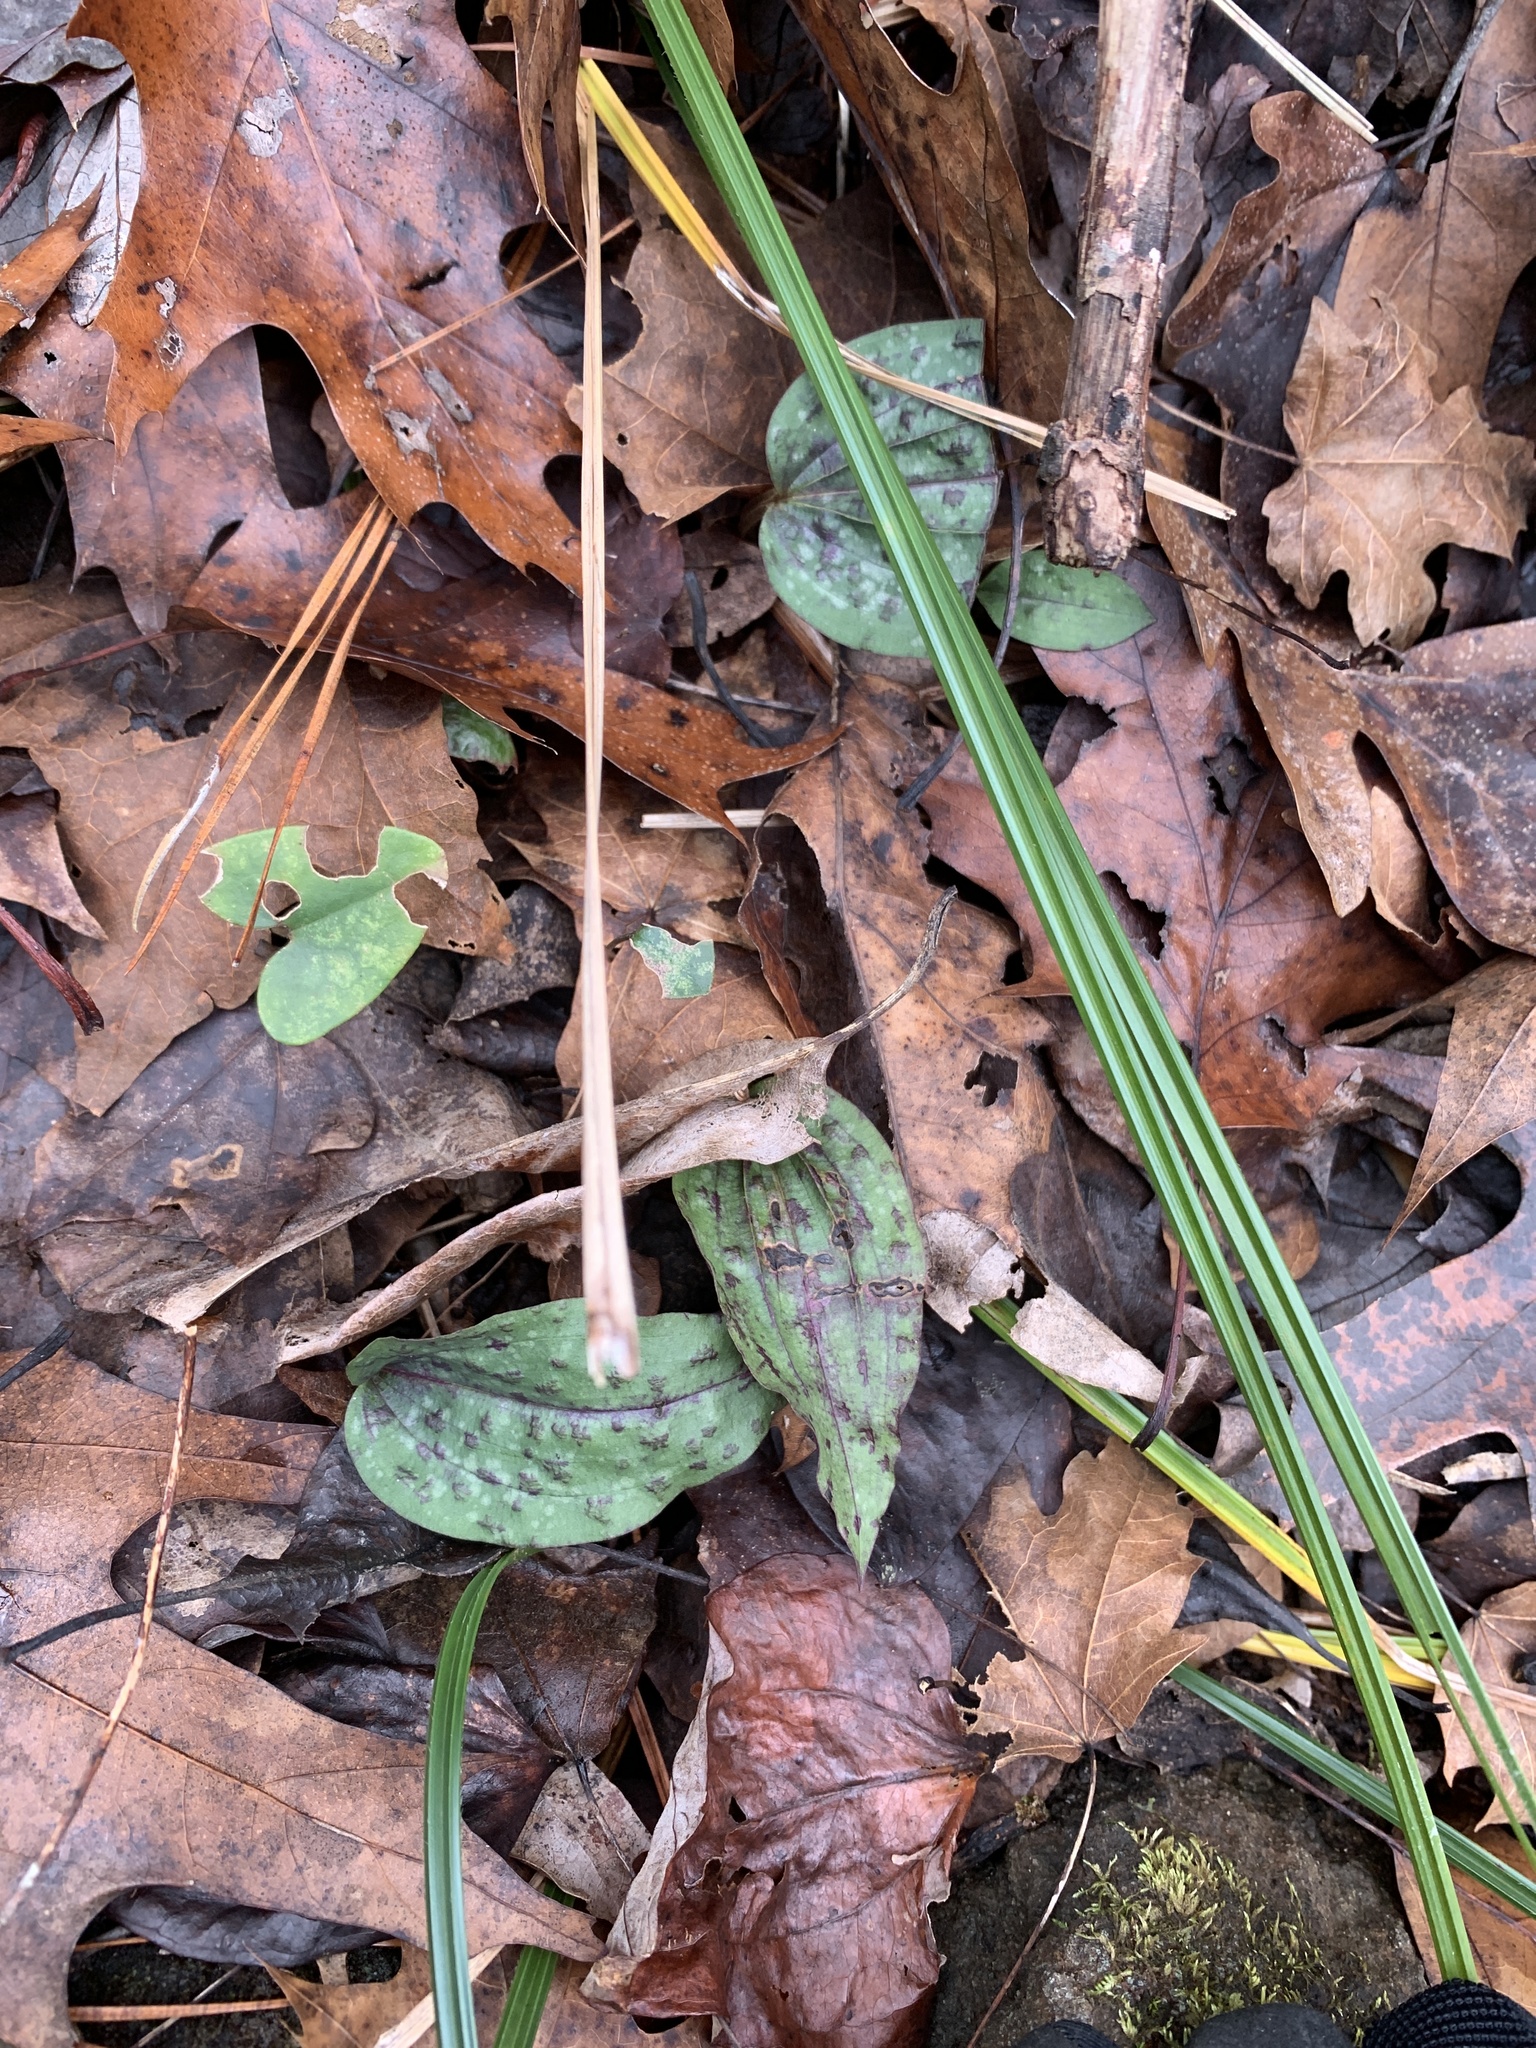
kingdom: Plantae
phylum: Tracheophyta
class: Liliopsida
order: Asparagales
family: Orchidaceae
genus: Tipularia
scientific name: Tipularia discolor
